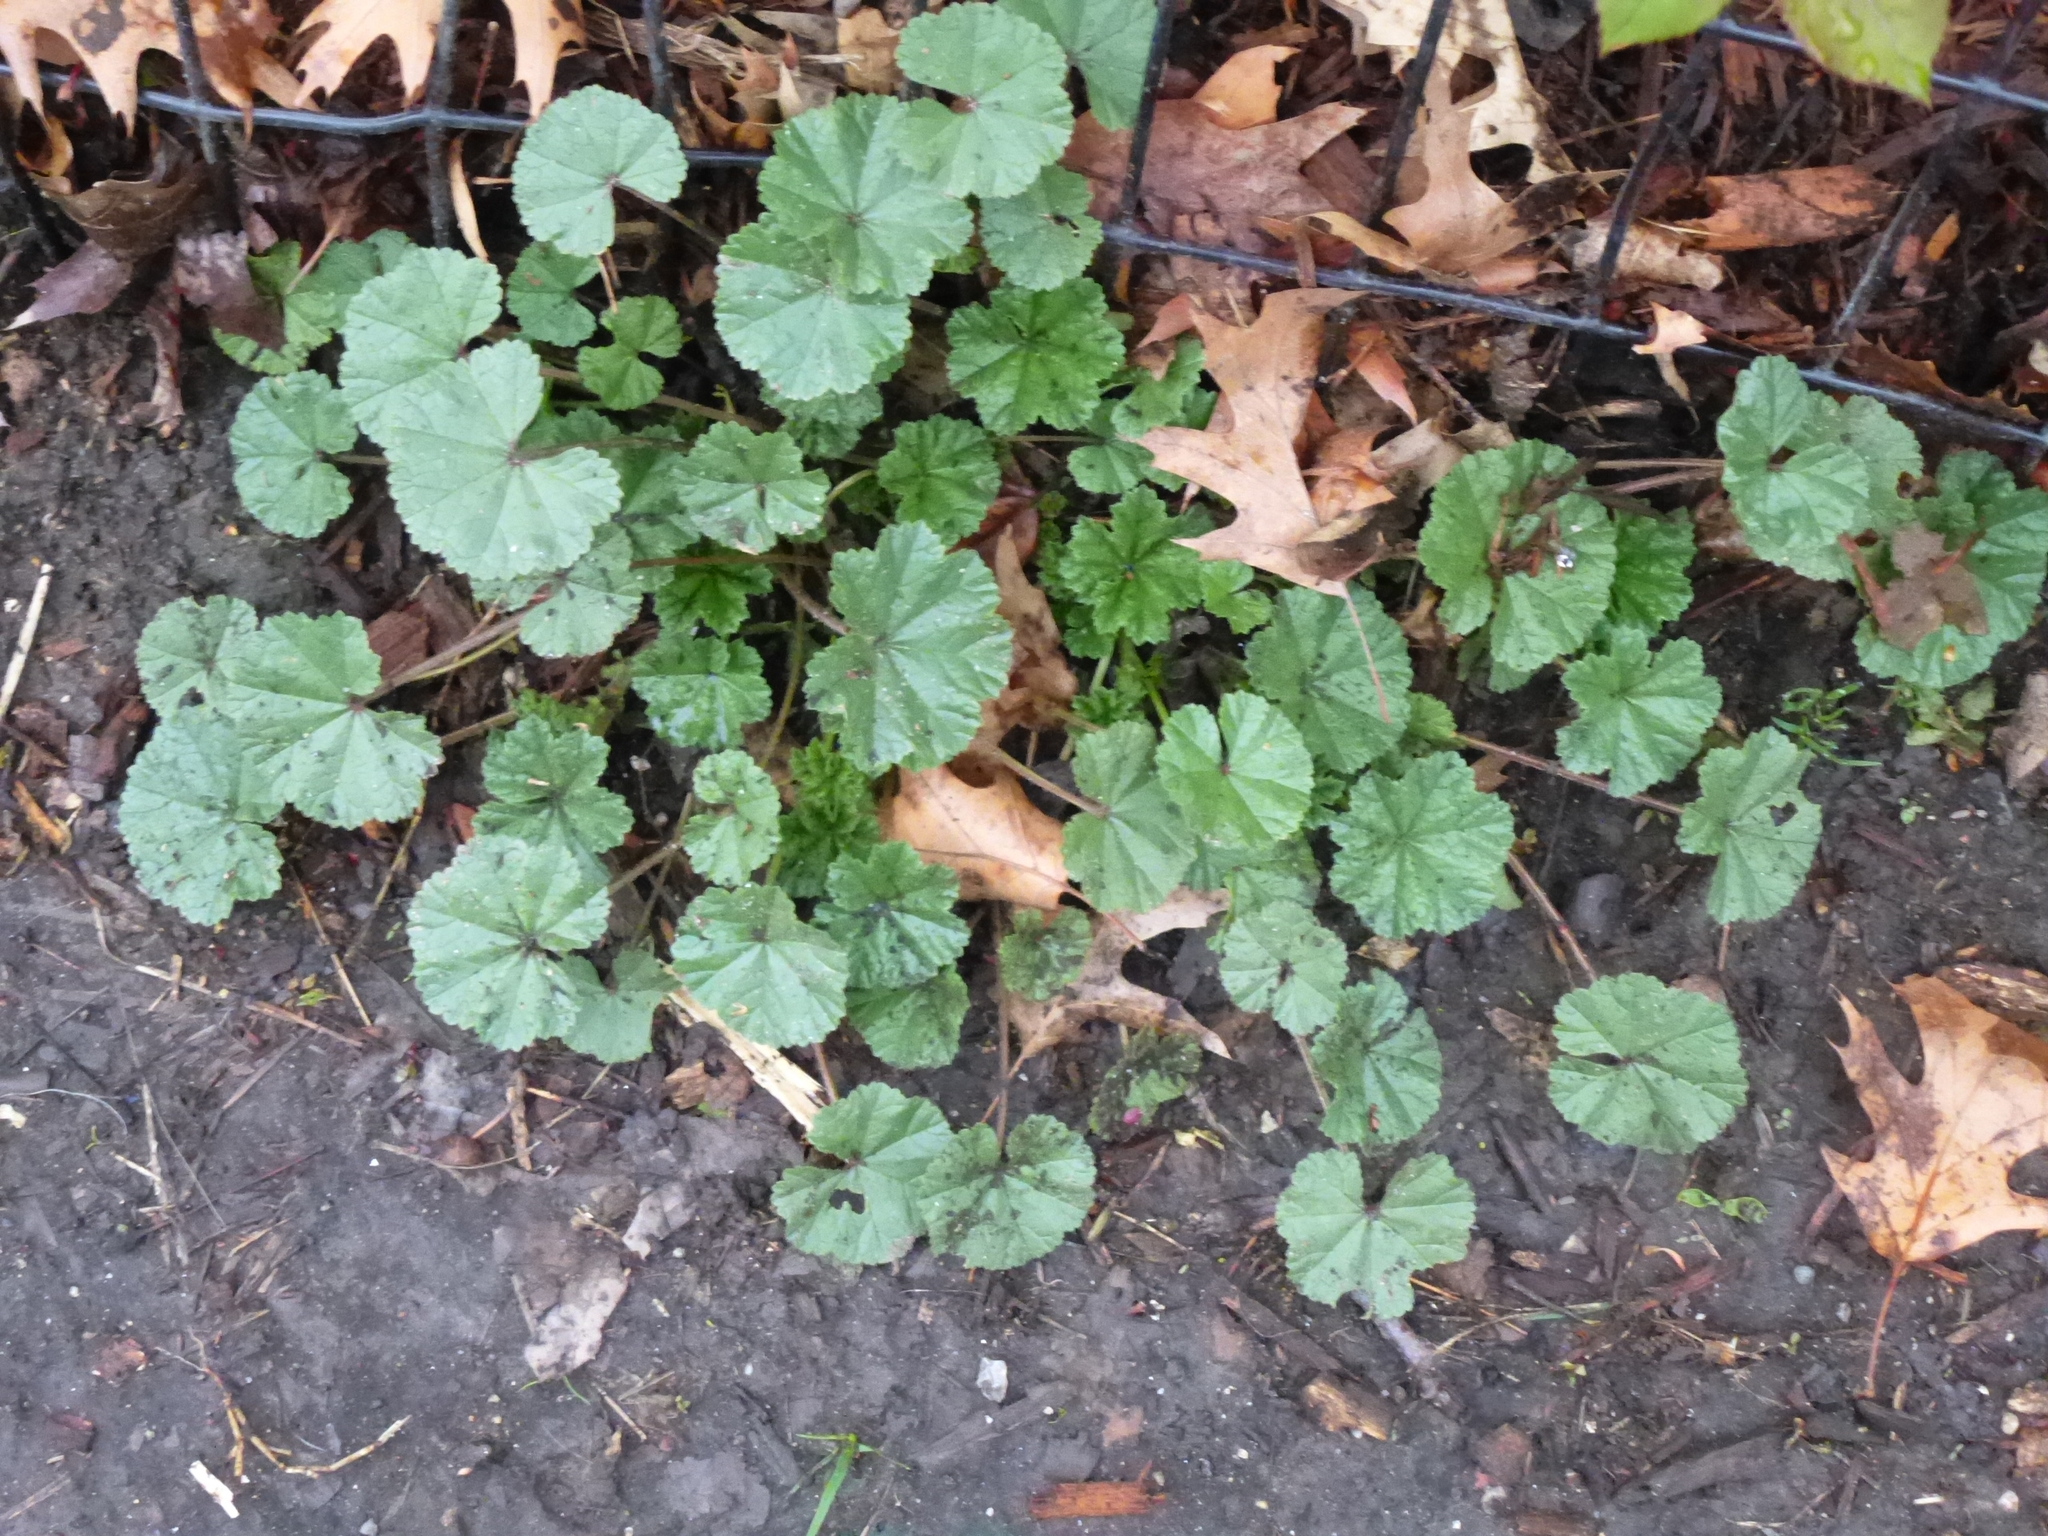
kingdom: Plantae
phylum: Tracheophyta
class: Magnoliopsida
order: Malvales
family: Malvaceae
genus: Malva
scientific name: Malva neglecta
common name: Common mallow
